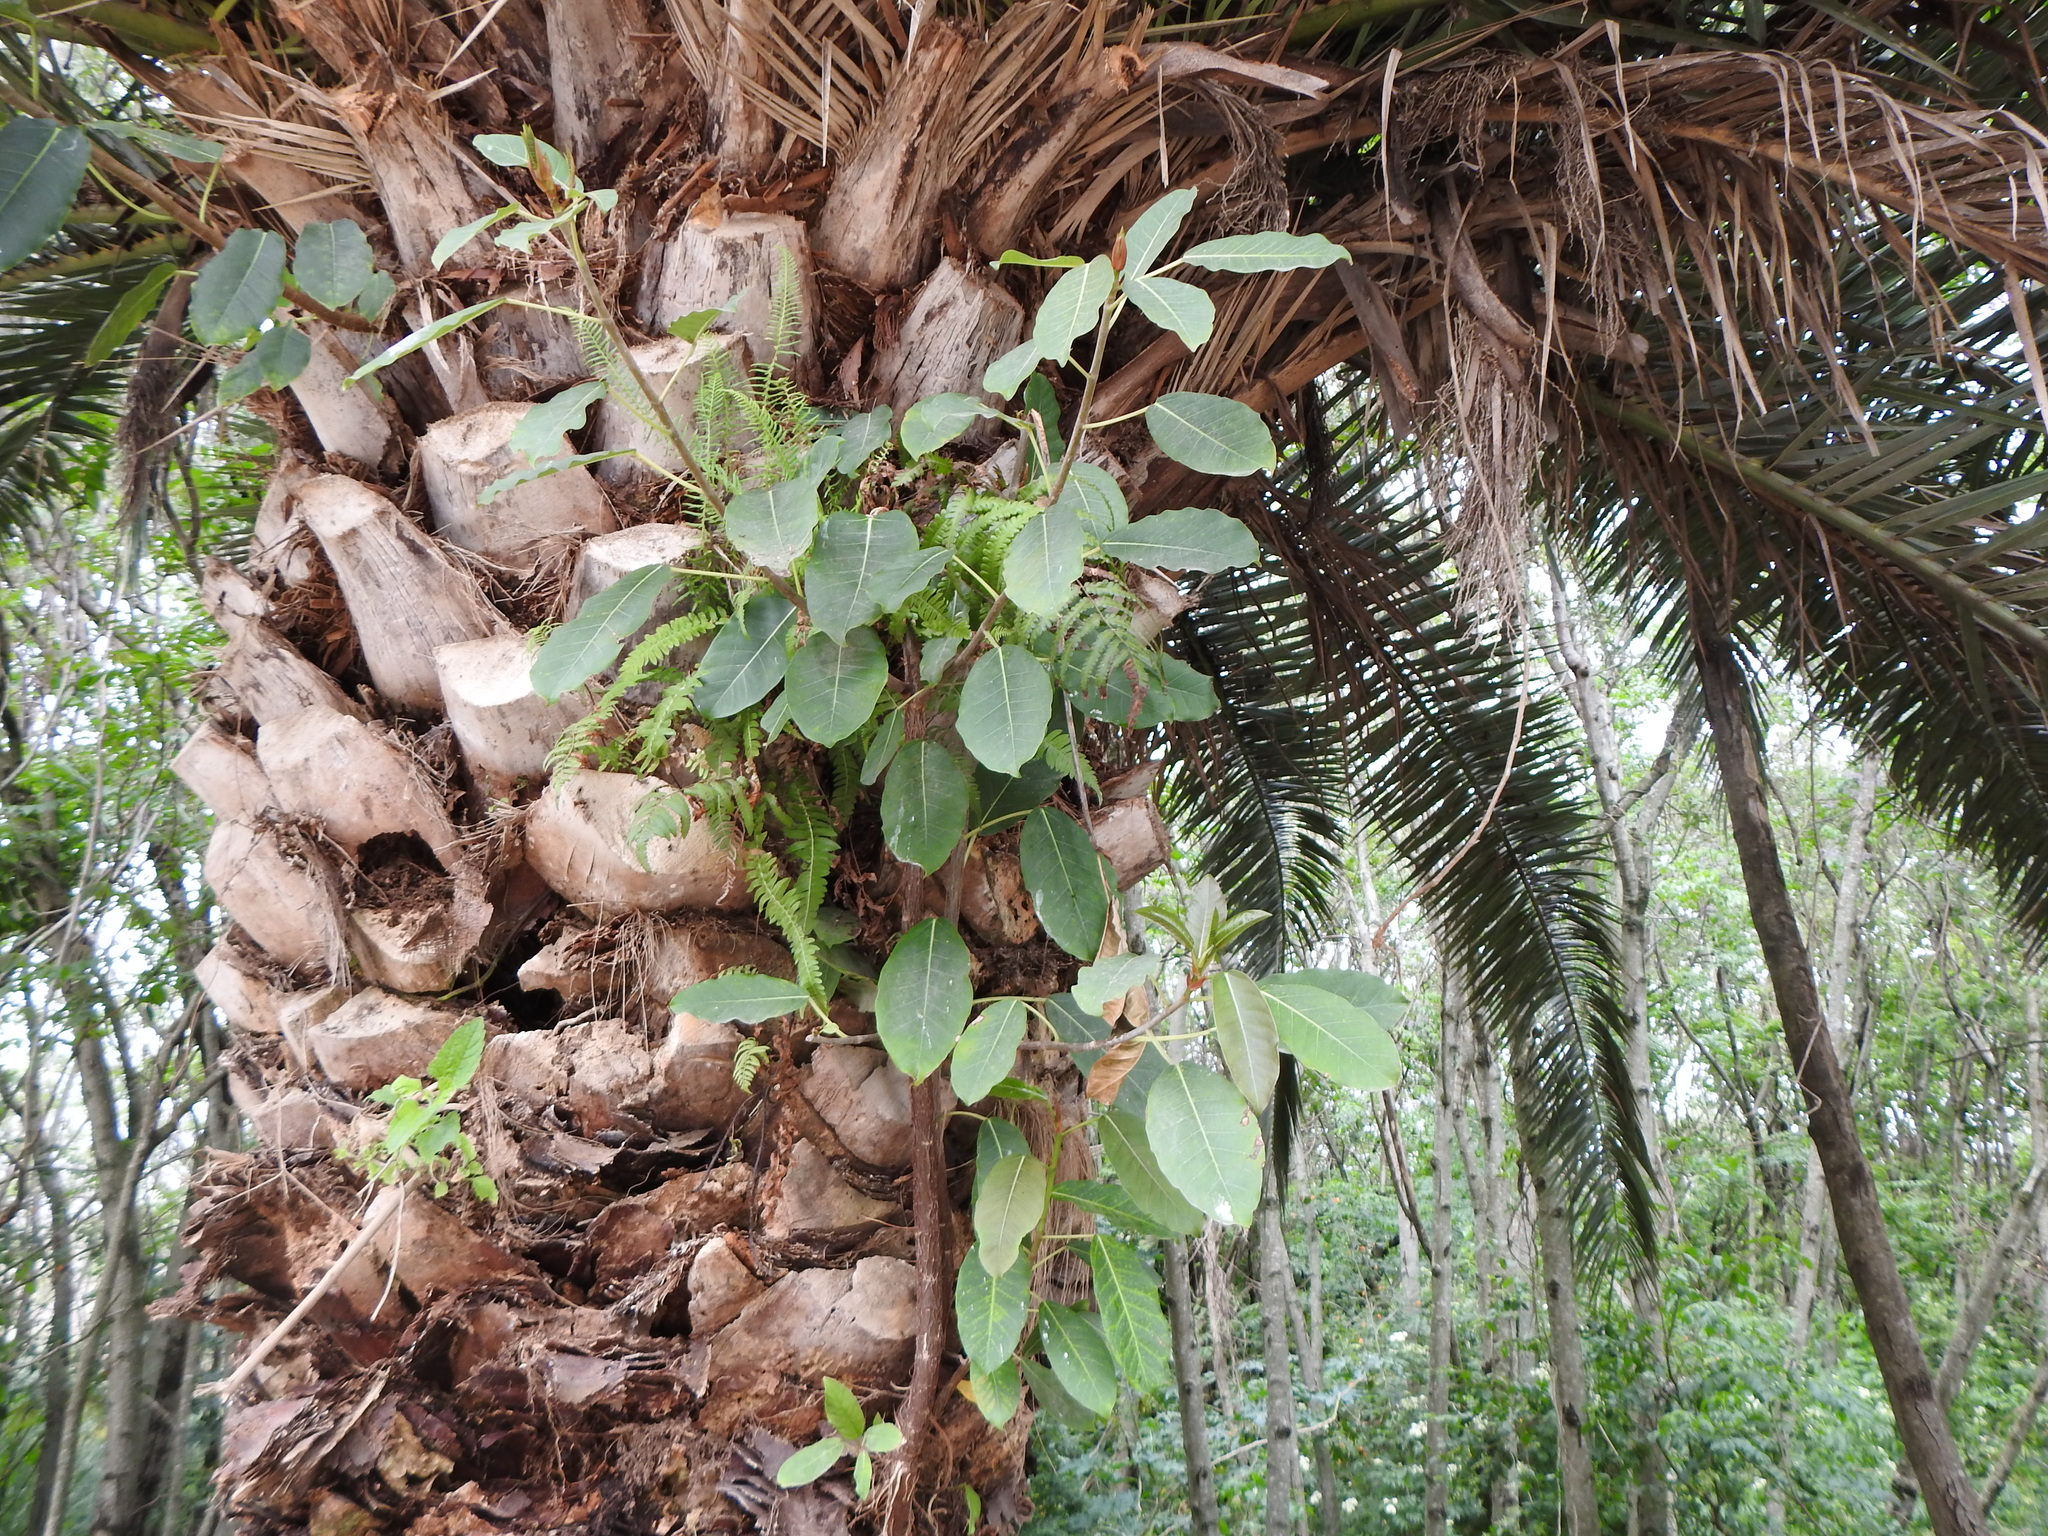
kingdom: Plantae
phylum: Tracheophyta
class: Magnoliopsida
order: Rosales
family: Moraceae
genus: Ficus
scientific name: Ficus luschnathiana
